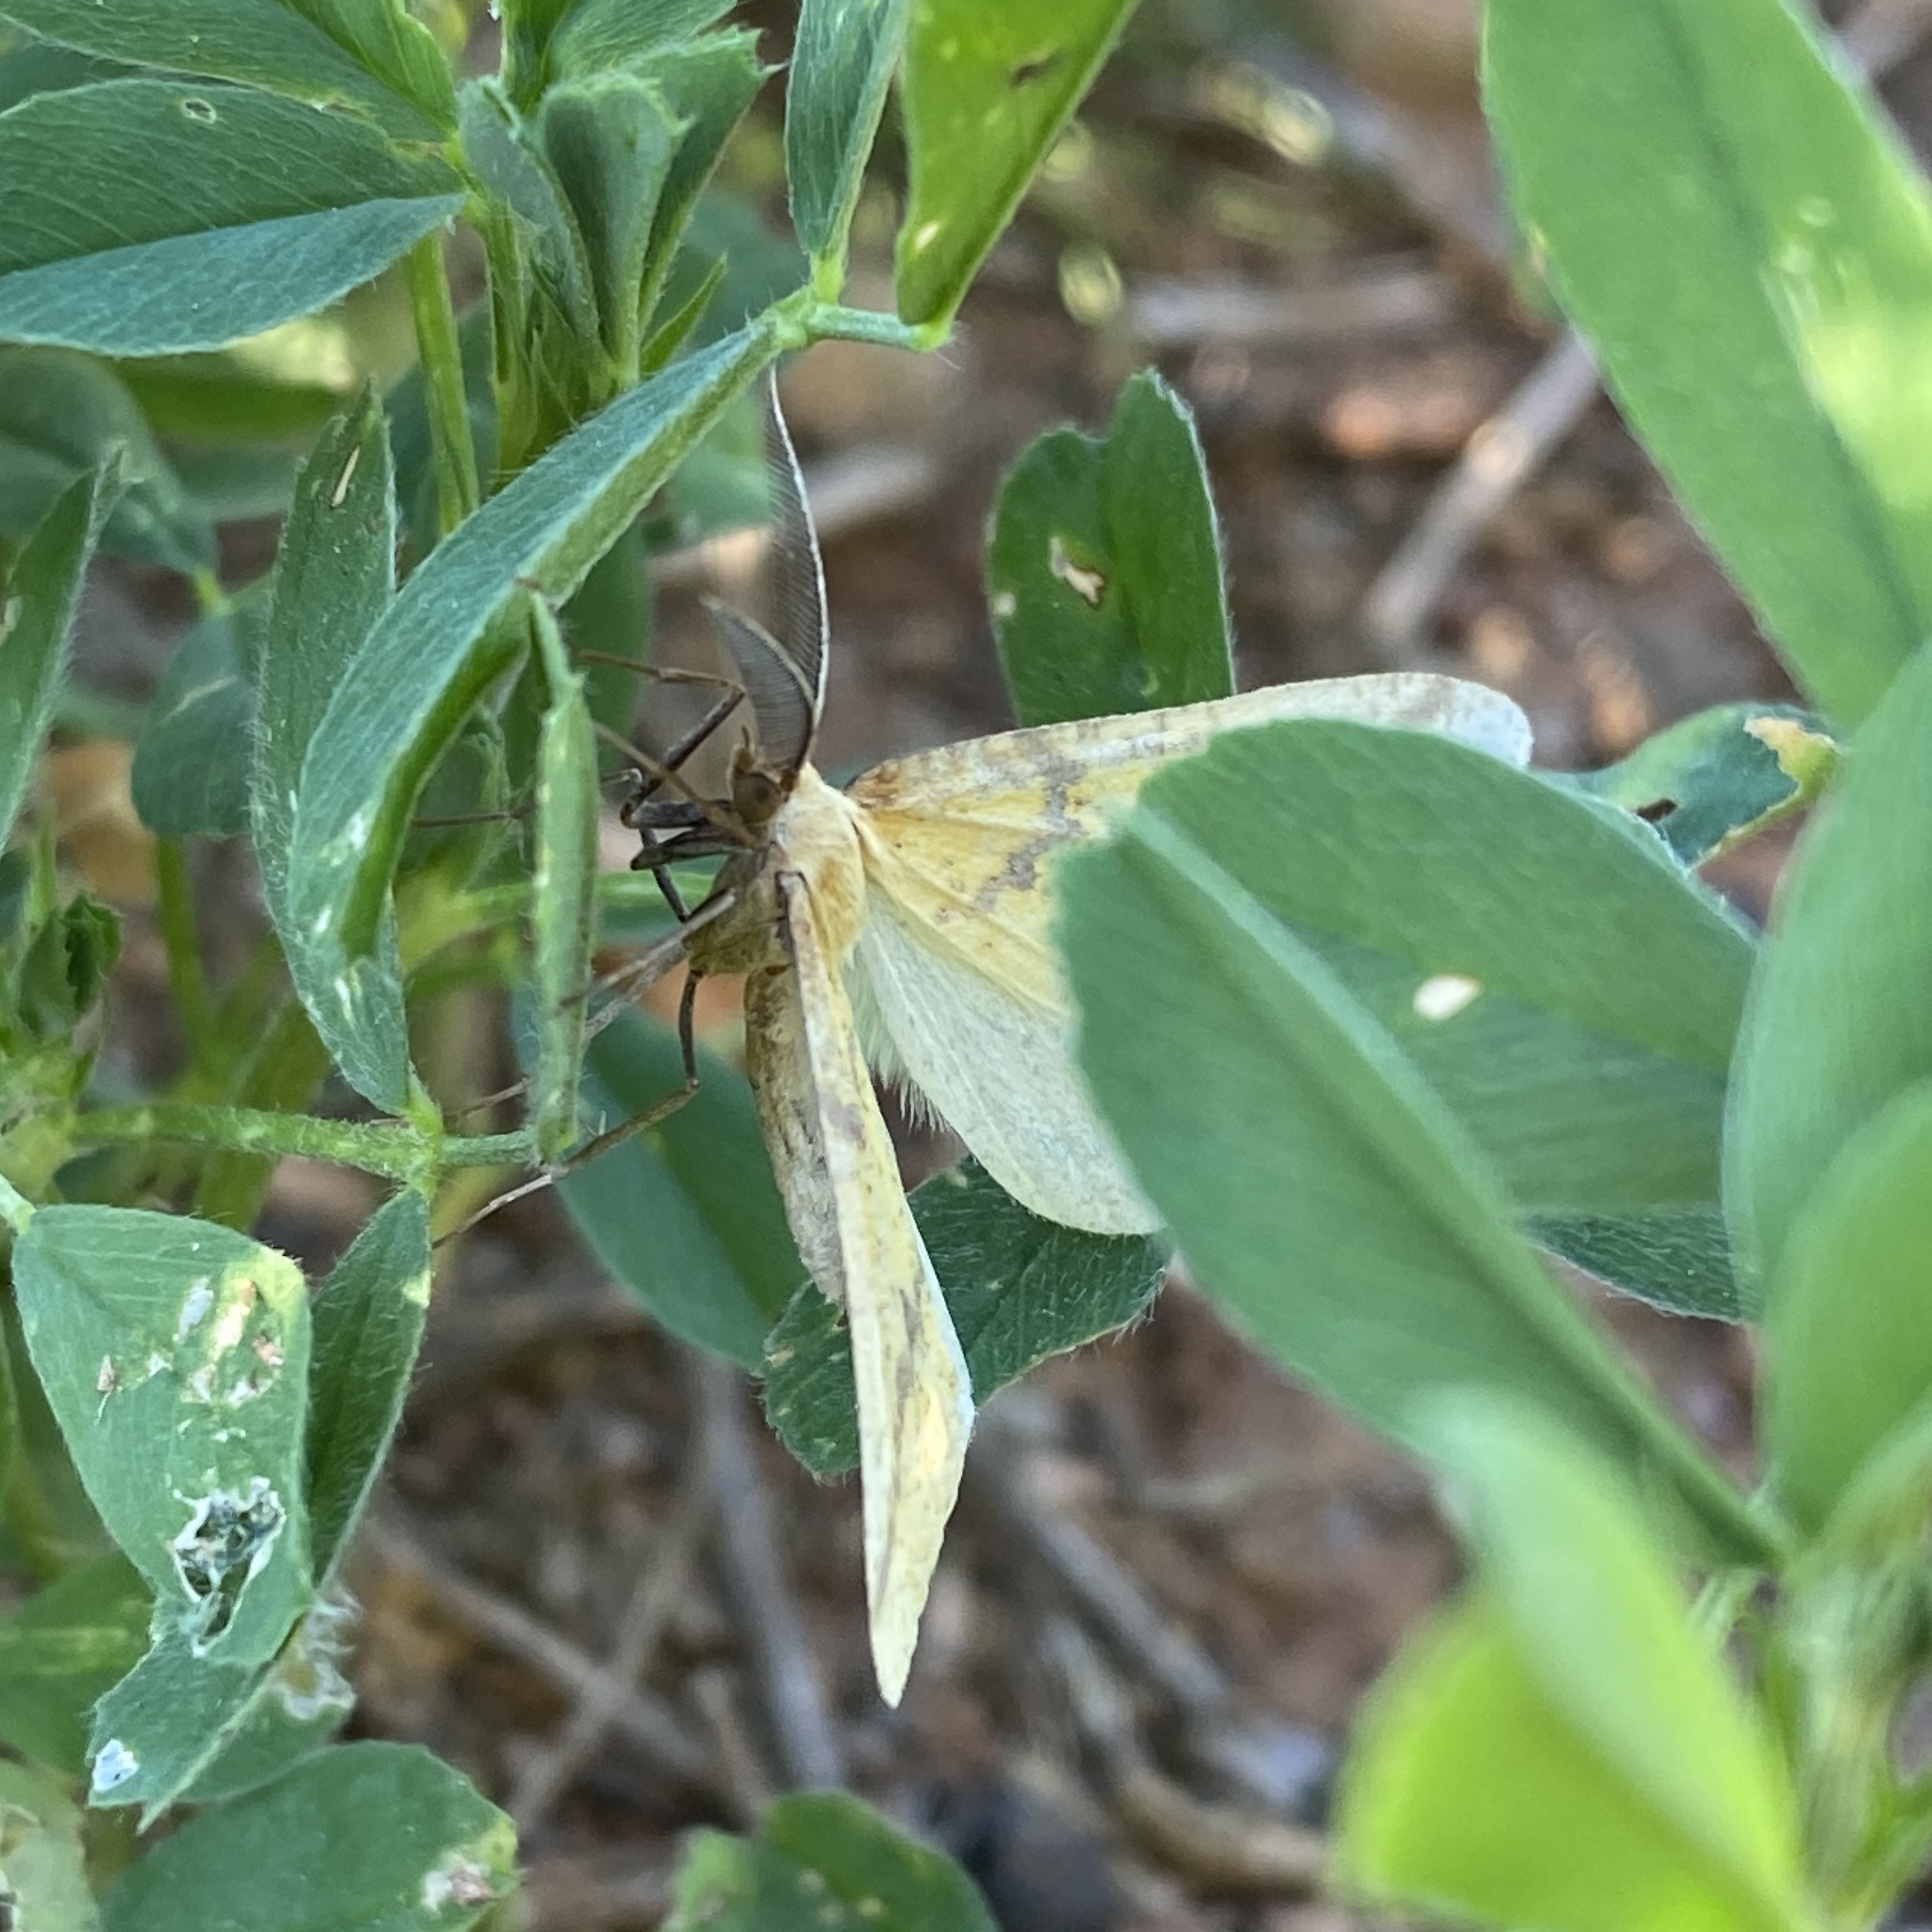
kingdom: Animalia
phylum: Arthropoda
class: Insecta
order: Lepidoptera
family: Geometridae
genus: Aspitates
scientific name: Aspitates ochrearia
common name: Yellow belle
